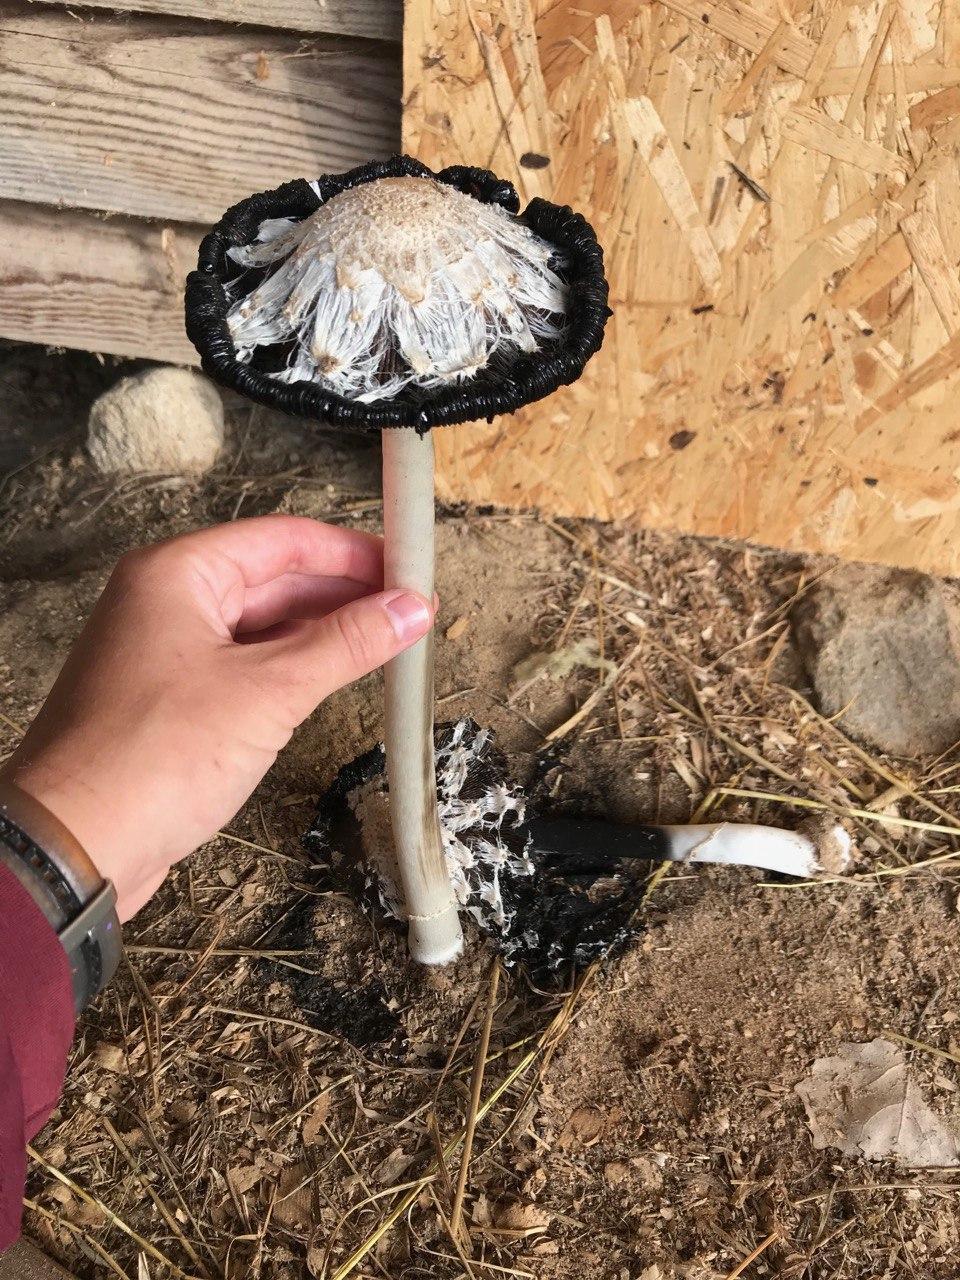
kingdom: Fungi
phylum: Basidiomycota
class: Agaricomycetes
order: Agaricales
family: Agaricaceae
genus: Coprinus
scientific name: Coprinus comatus
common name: Lawyer's wig
